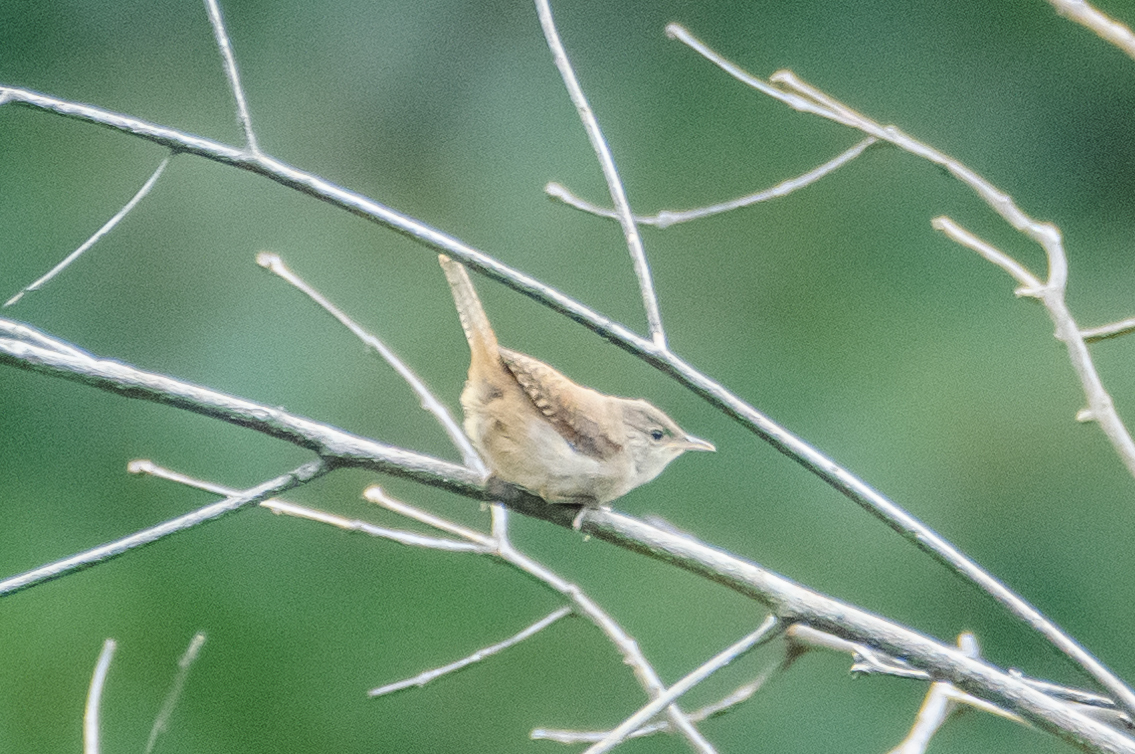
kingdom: Animalia
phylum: Chordata
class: Aves
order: Passeriformes
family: Troglodytidae
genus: Troglodytes
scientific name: Troglodytes aedon
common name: House wren
